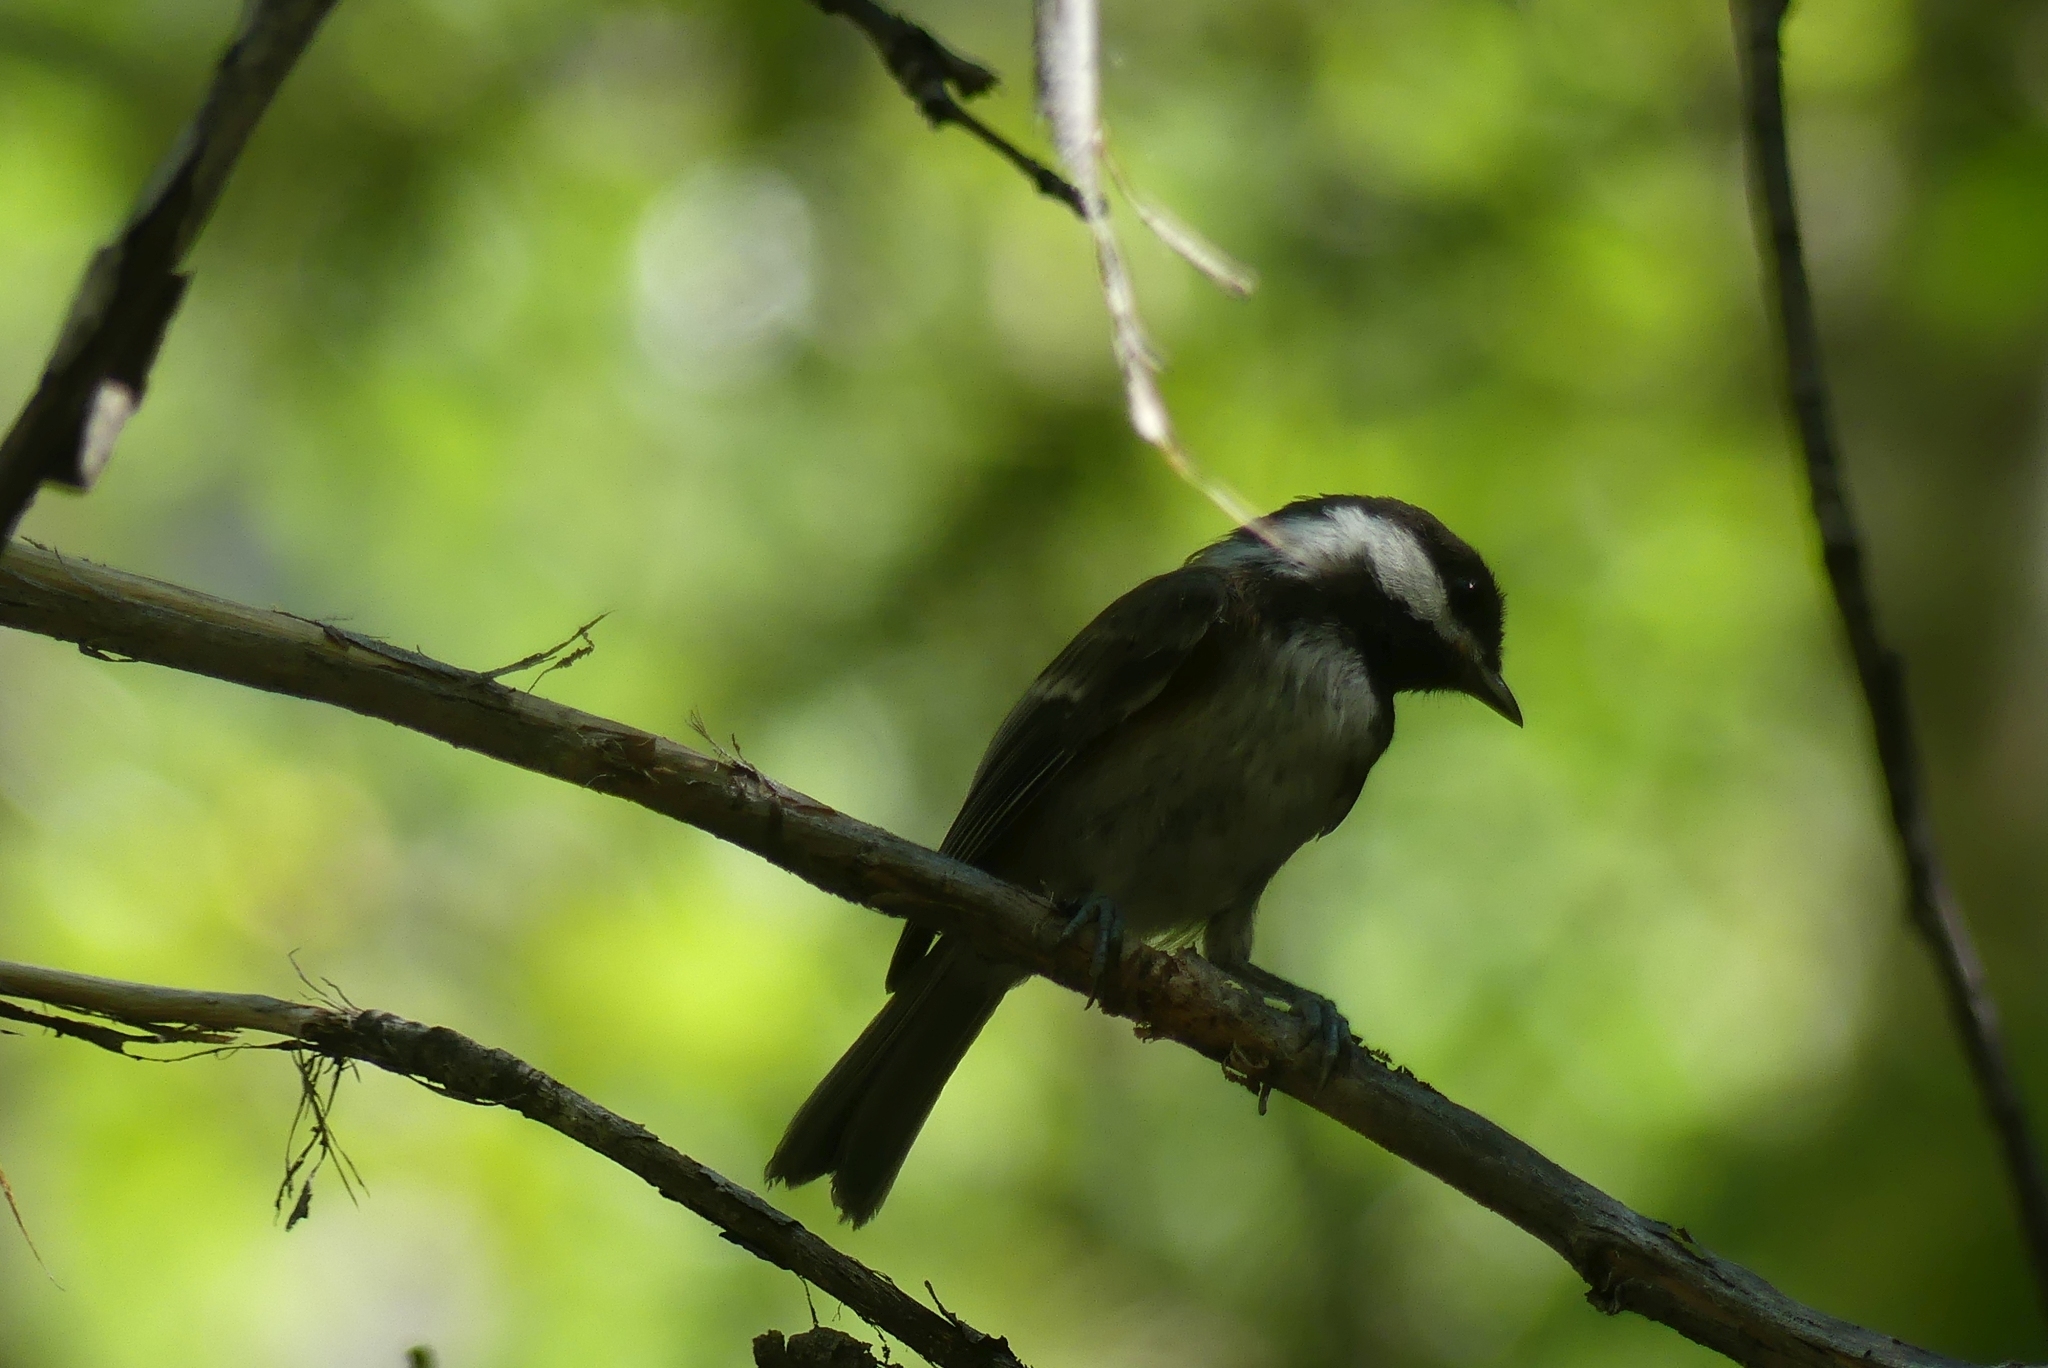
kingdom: Animalia
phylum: Chordata
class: Aves
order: Passeriformes
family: Paridae
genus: Poecile
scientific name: Poecile rufescens
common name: Chestnut-backed chickadee
